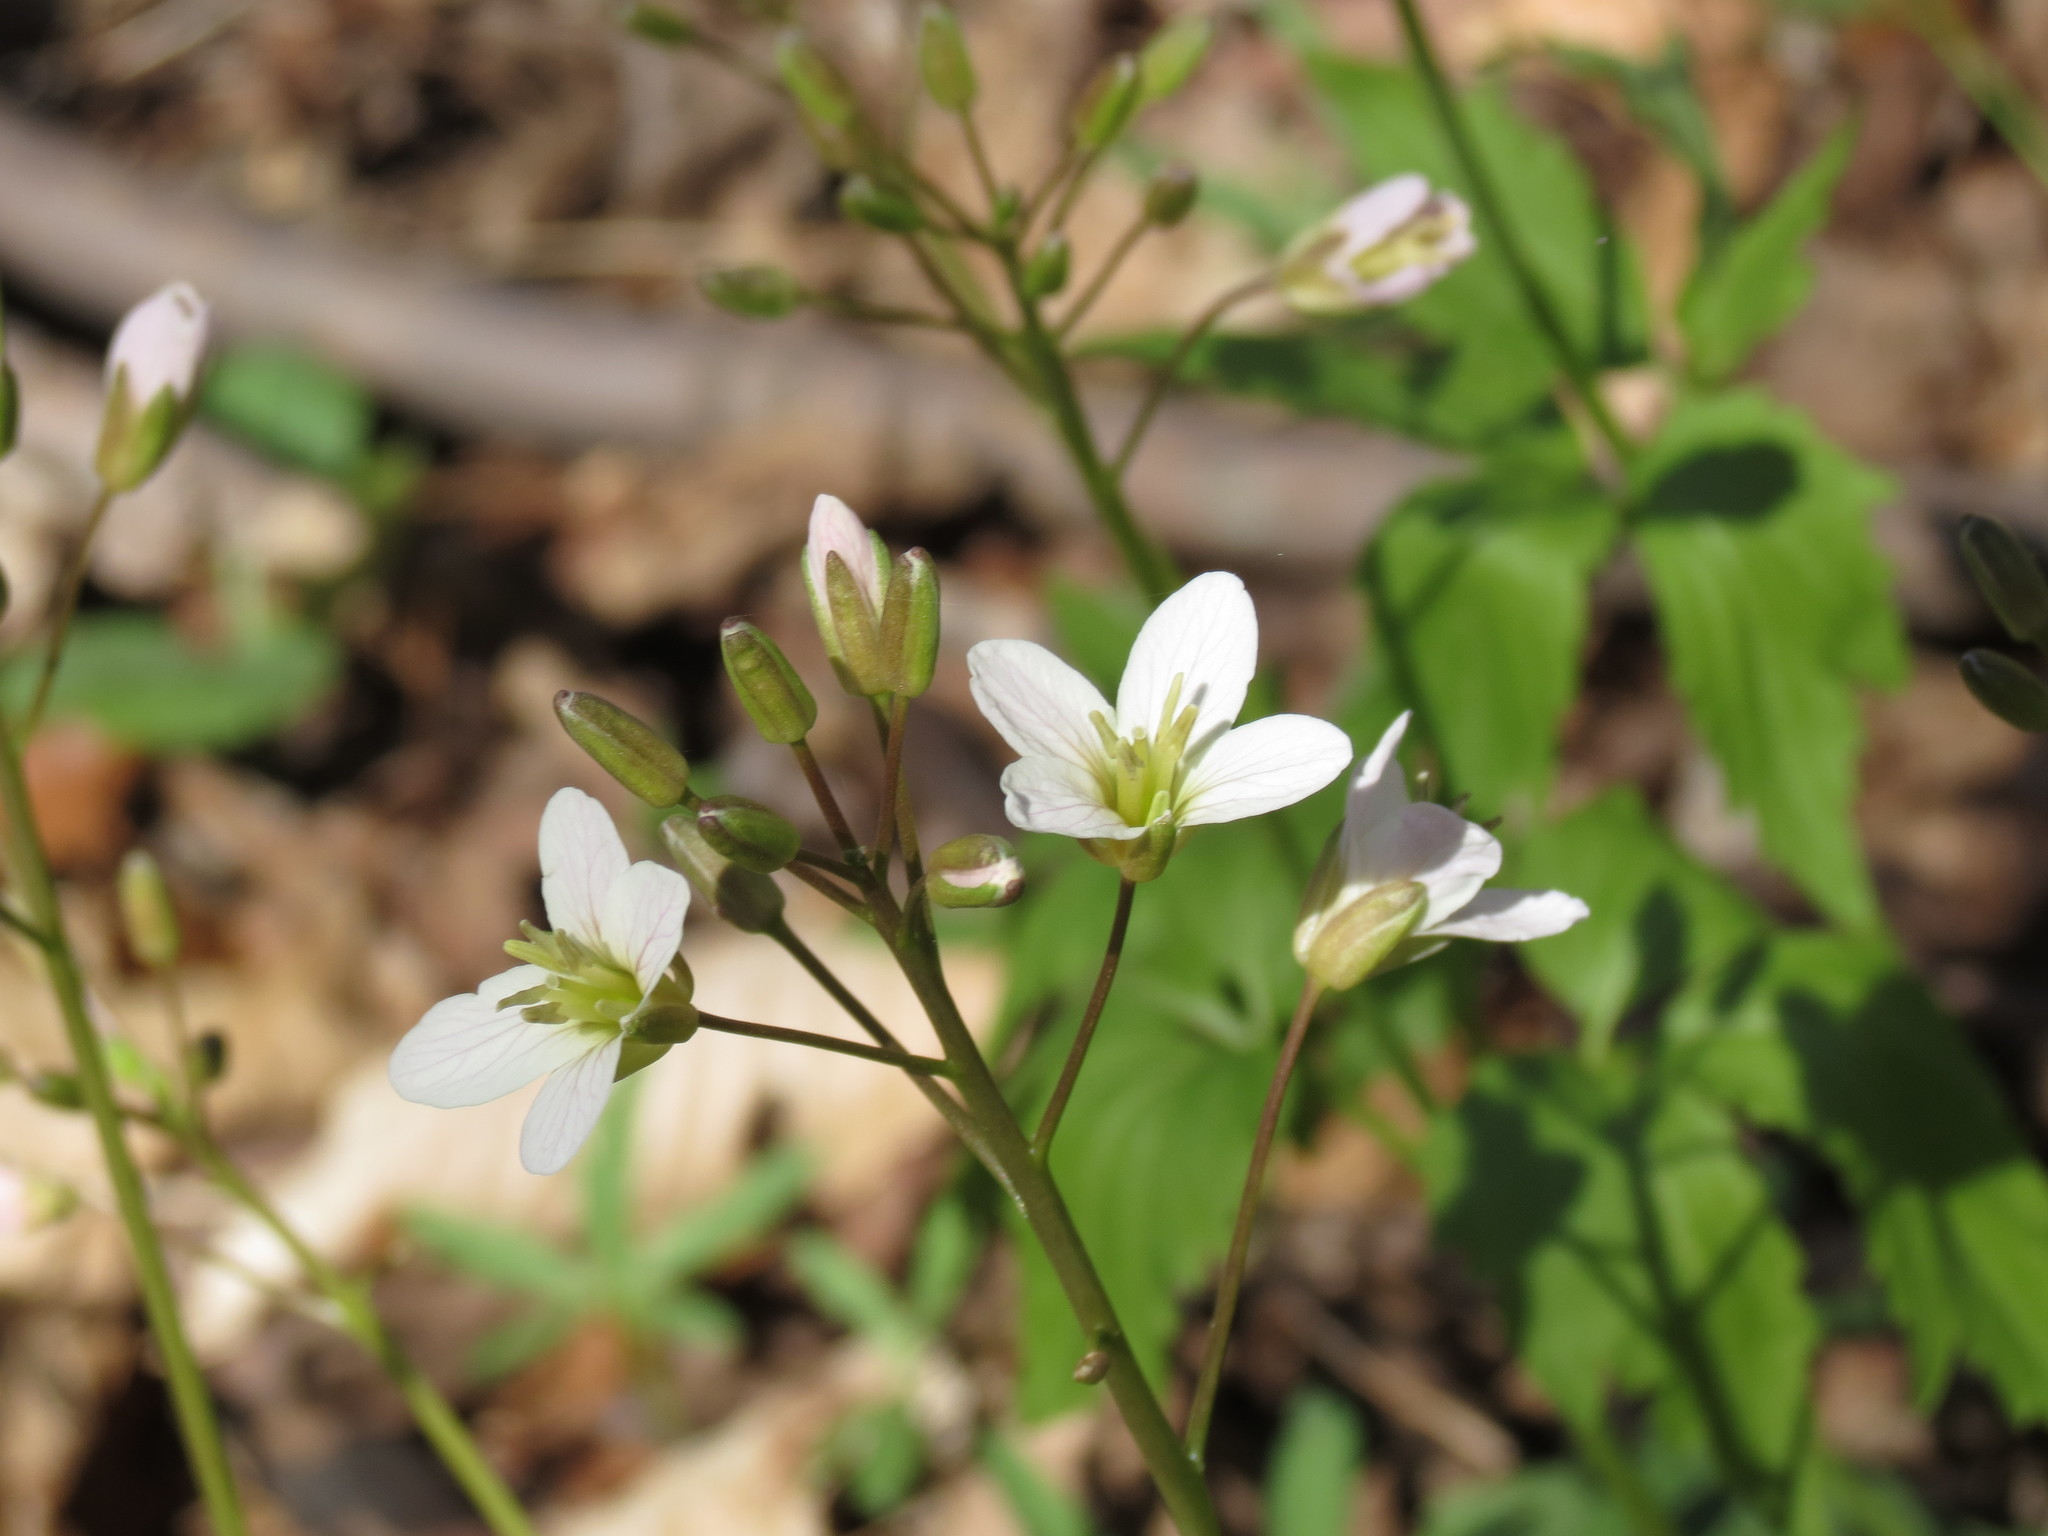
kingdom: Plantae
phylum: Tracheophyta
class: Magnoliopsida
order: Brassicales
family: Brassicaceae
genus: Cardamine
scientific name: Cardamine diphylla
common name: Broad-leaved toothwort
